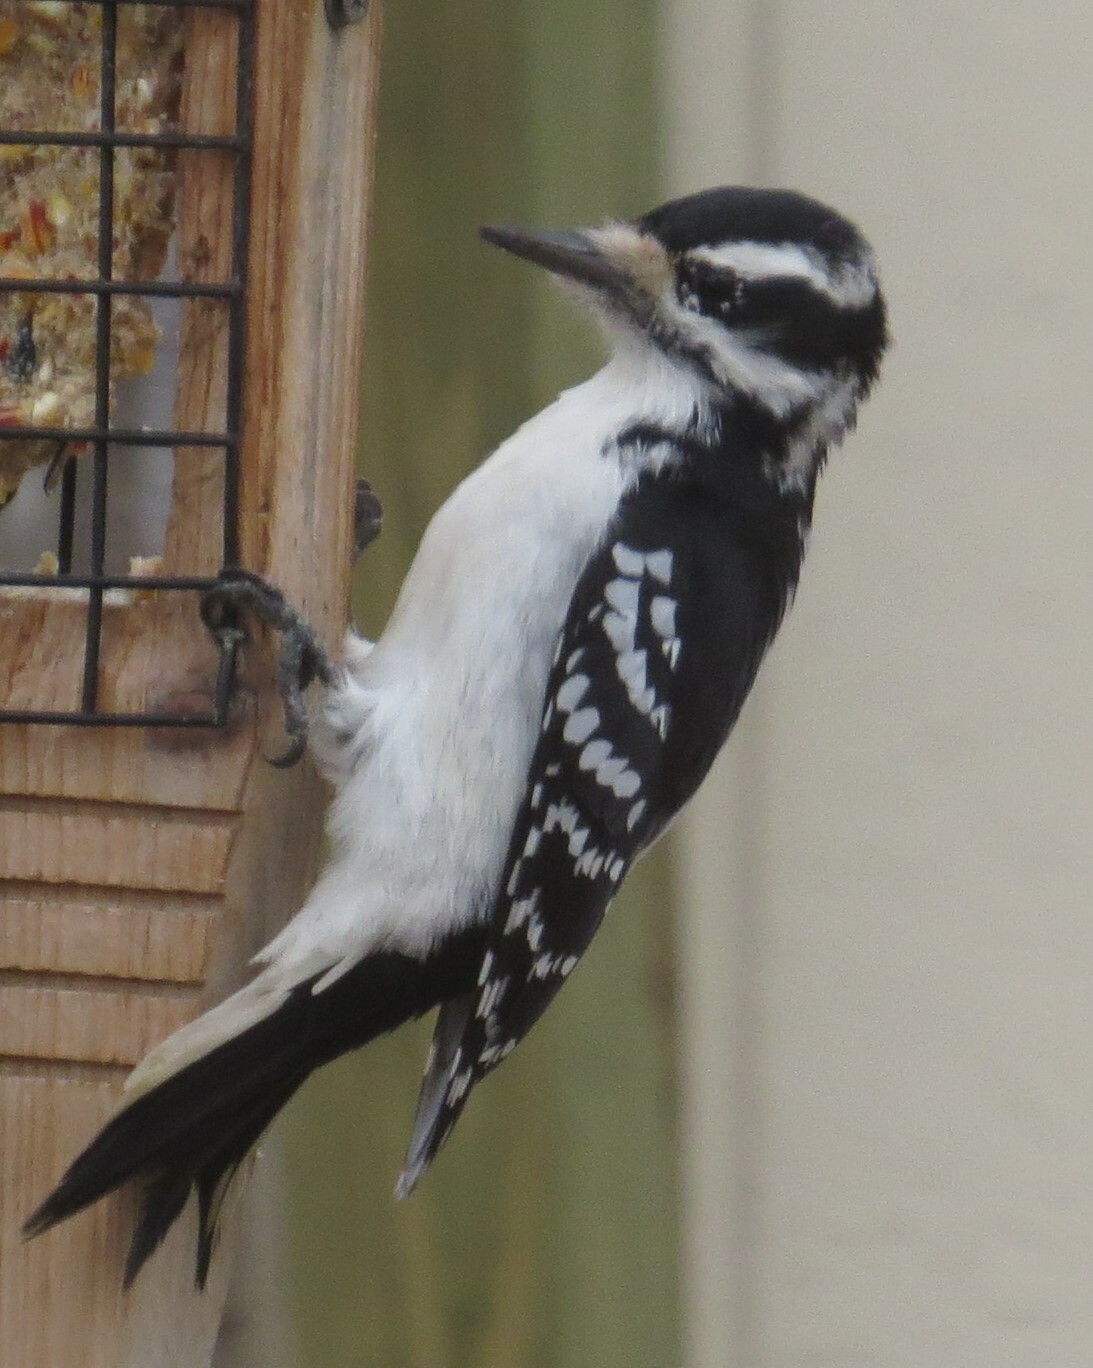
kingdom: Animalia
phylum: Chordata
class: Aves
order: Piciformes
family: Picidae
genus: Leuconotopicus
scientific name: Leuconotopicus villosus
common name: Hairy woodpecker
